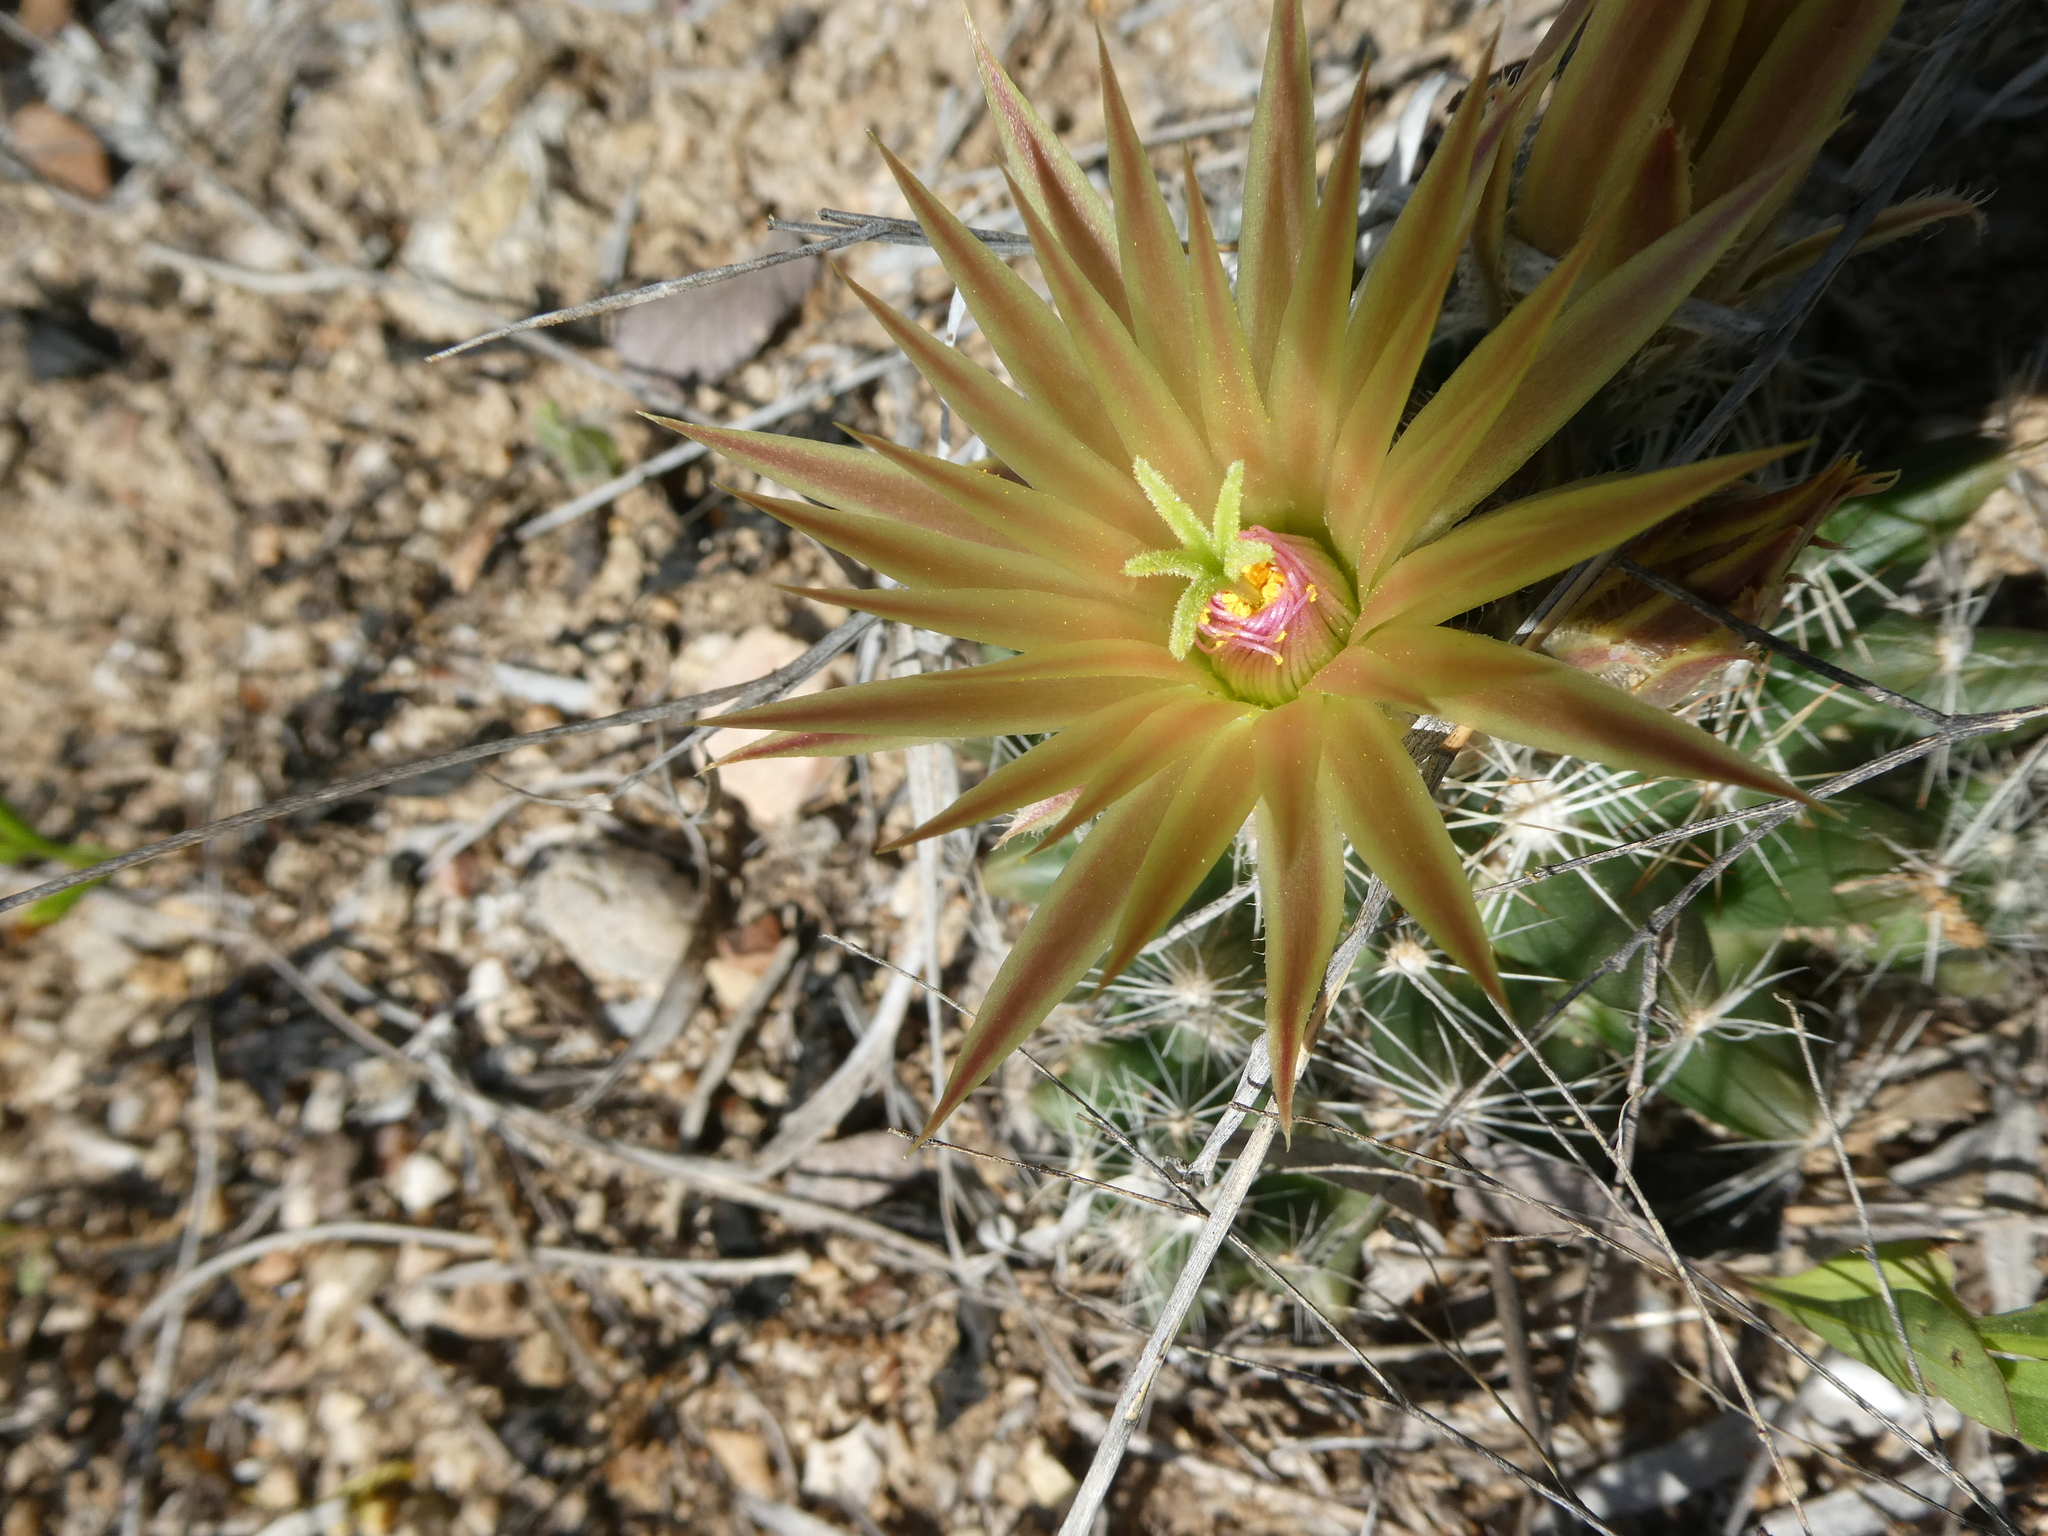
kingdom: Plantae
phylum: Tracheophyta
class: Magnoliopsida
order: Caryophyllales
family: Cactaceae
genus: Pelecyphora
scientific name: Pelecyphora missouriensis
